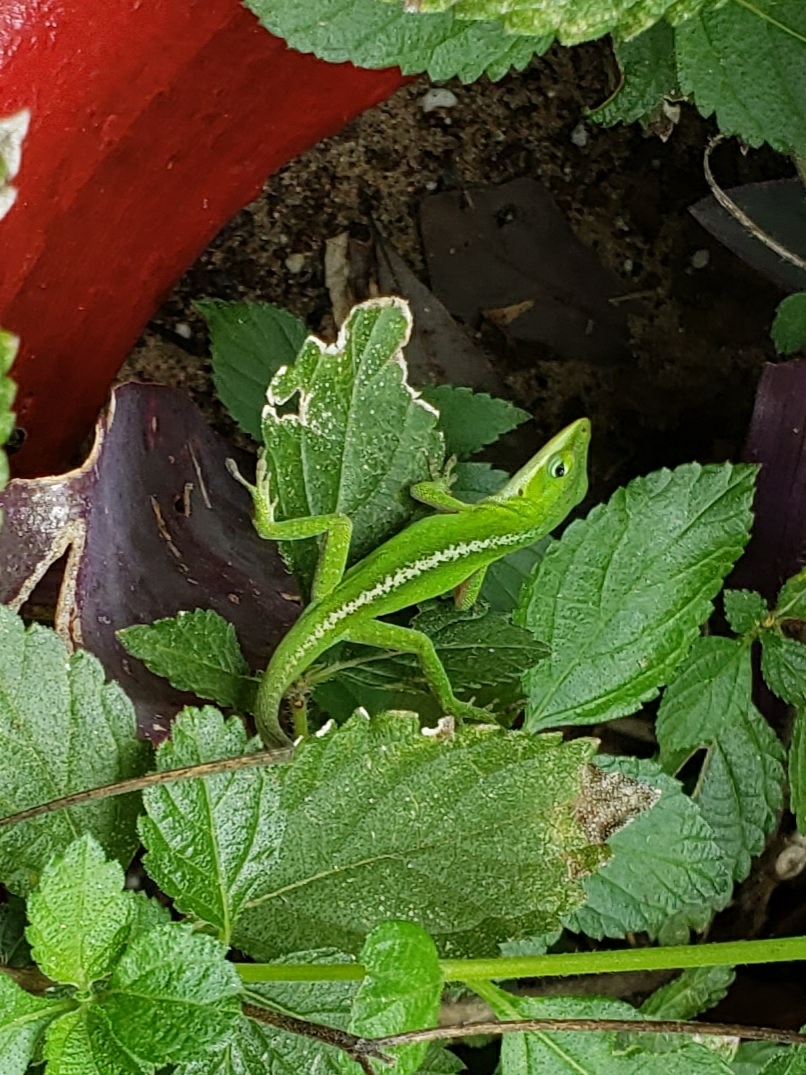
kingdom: Animalia
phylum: Chordata
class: Squamata
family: Dactyloidae
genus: Anolis
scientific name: Anolis carolinensis
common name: Green anole
